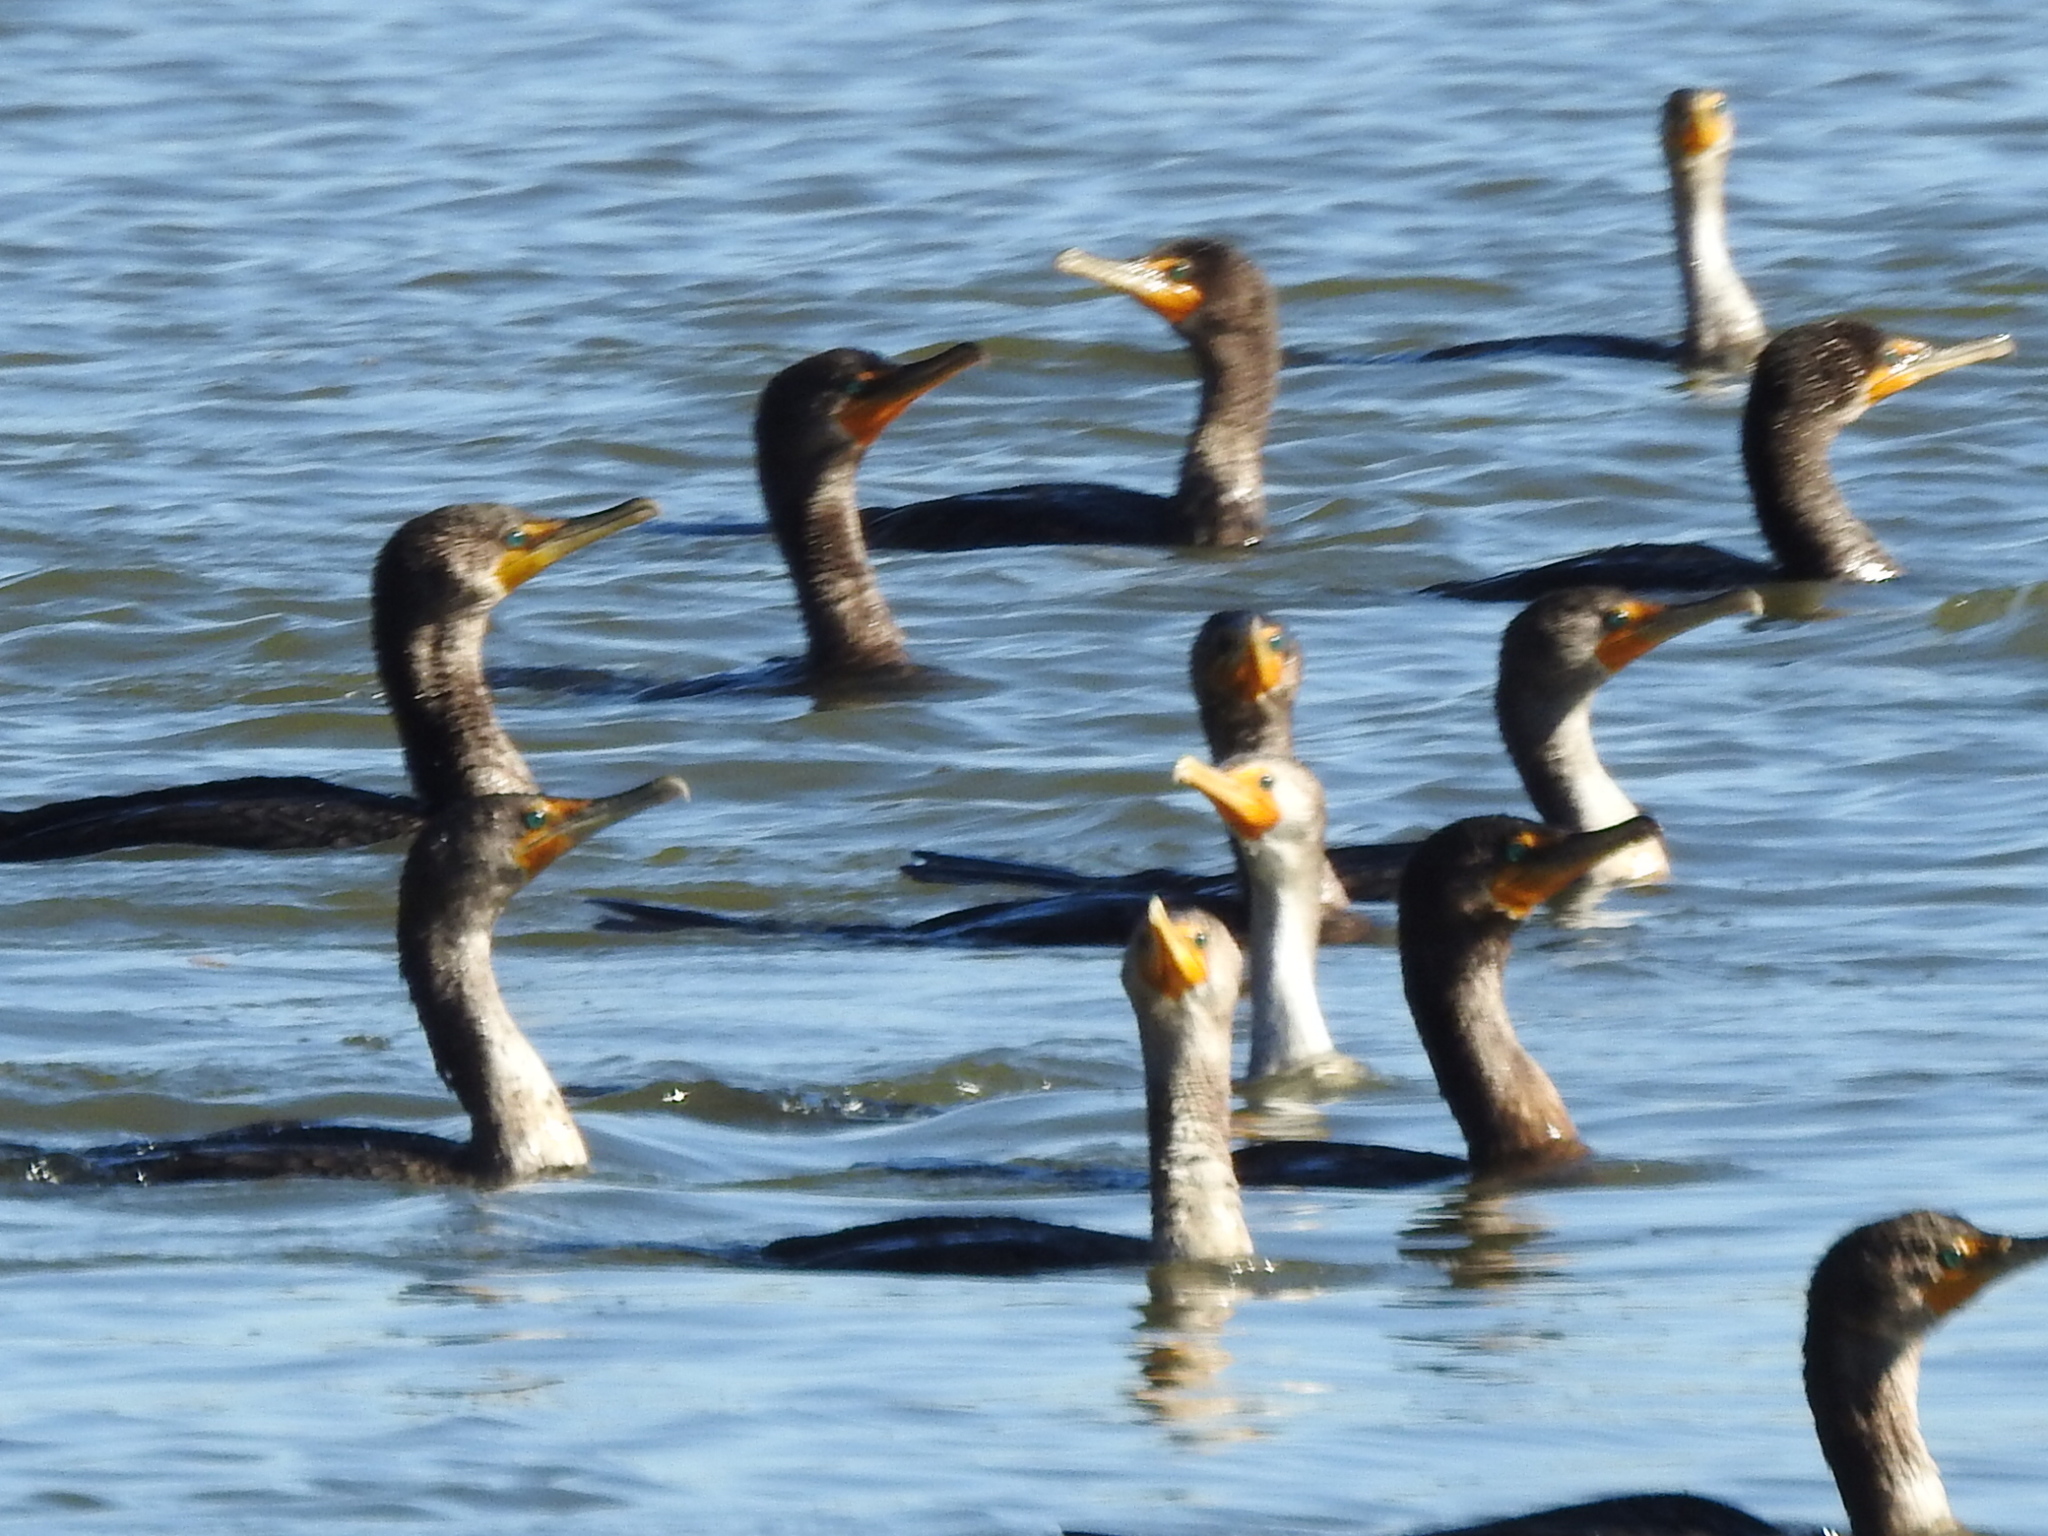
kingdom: Animalia
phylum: Chordata
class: Aves
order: Suliformes
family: Phalacrocoracidae
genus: Phalacrocorax
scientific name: Phalacrocorax auritus
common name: Double-crested cormorant
